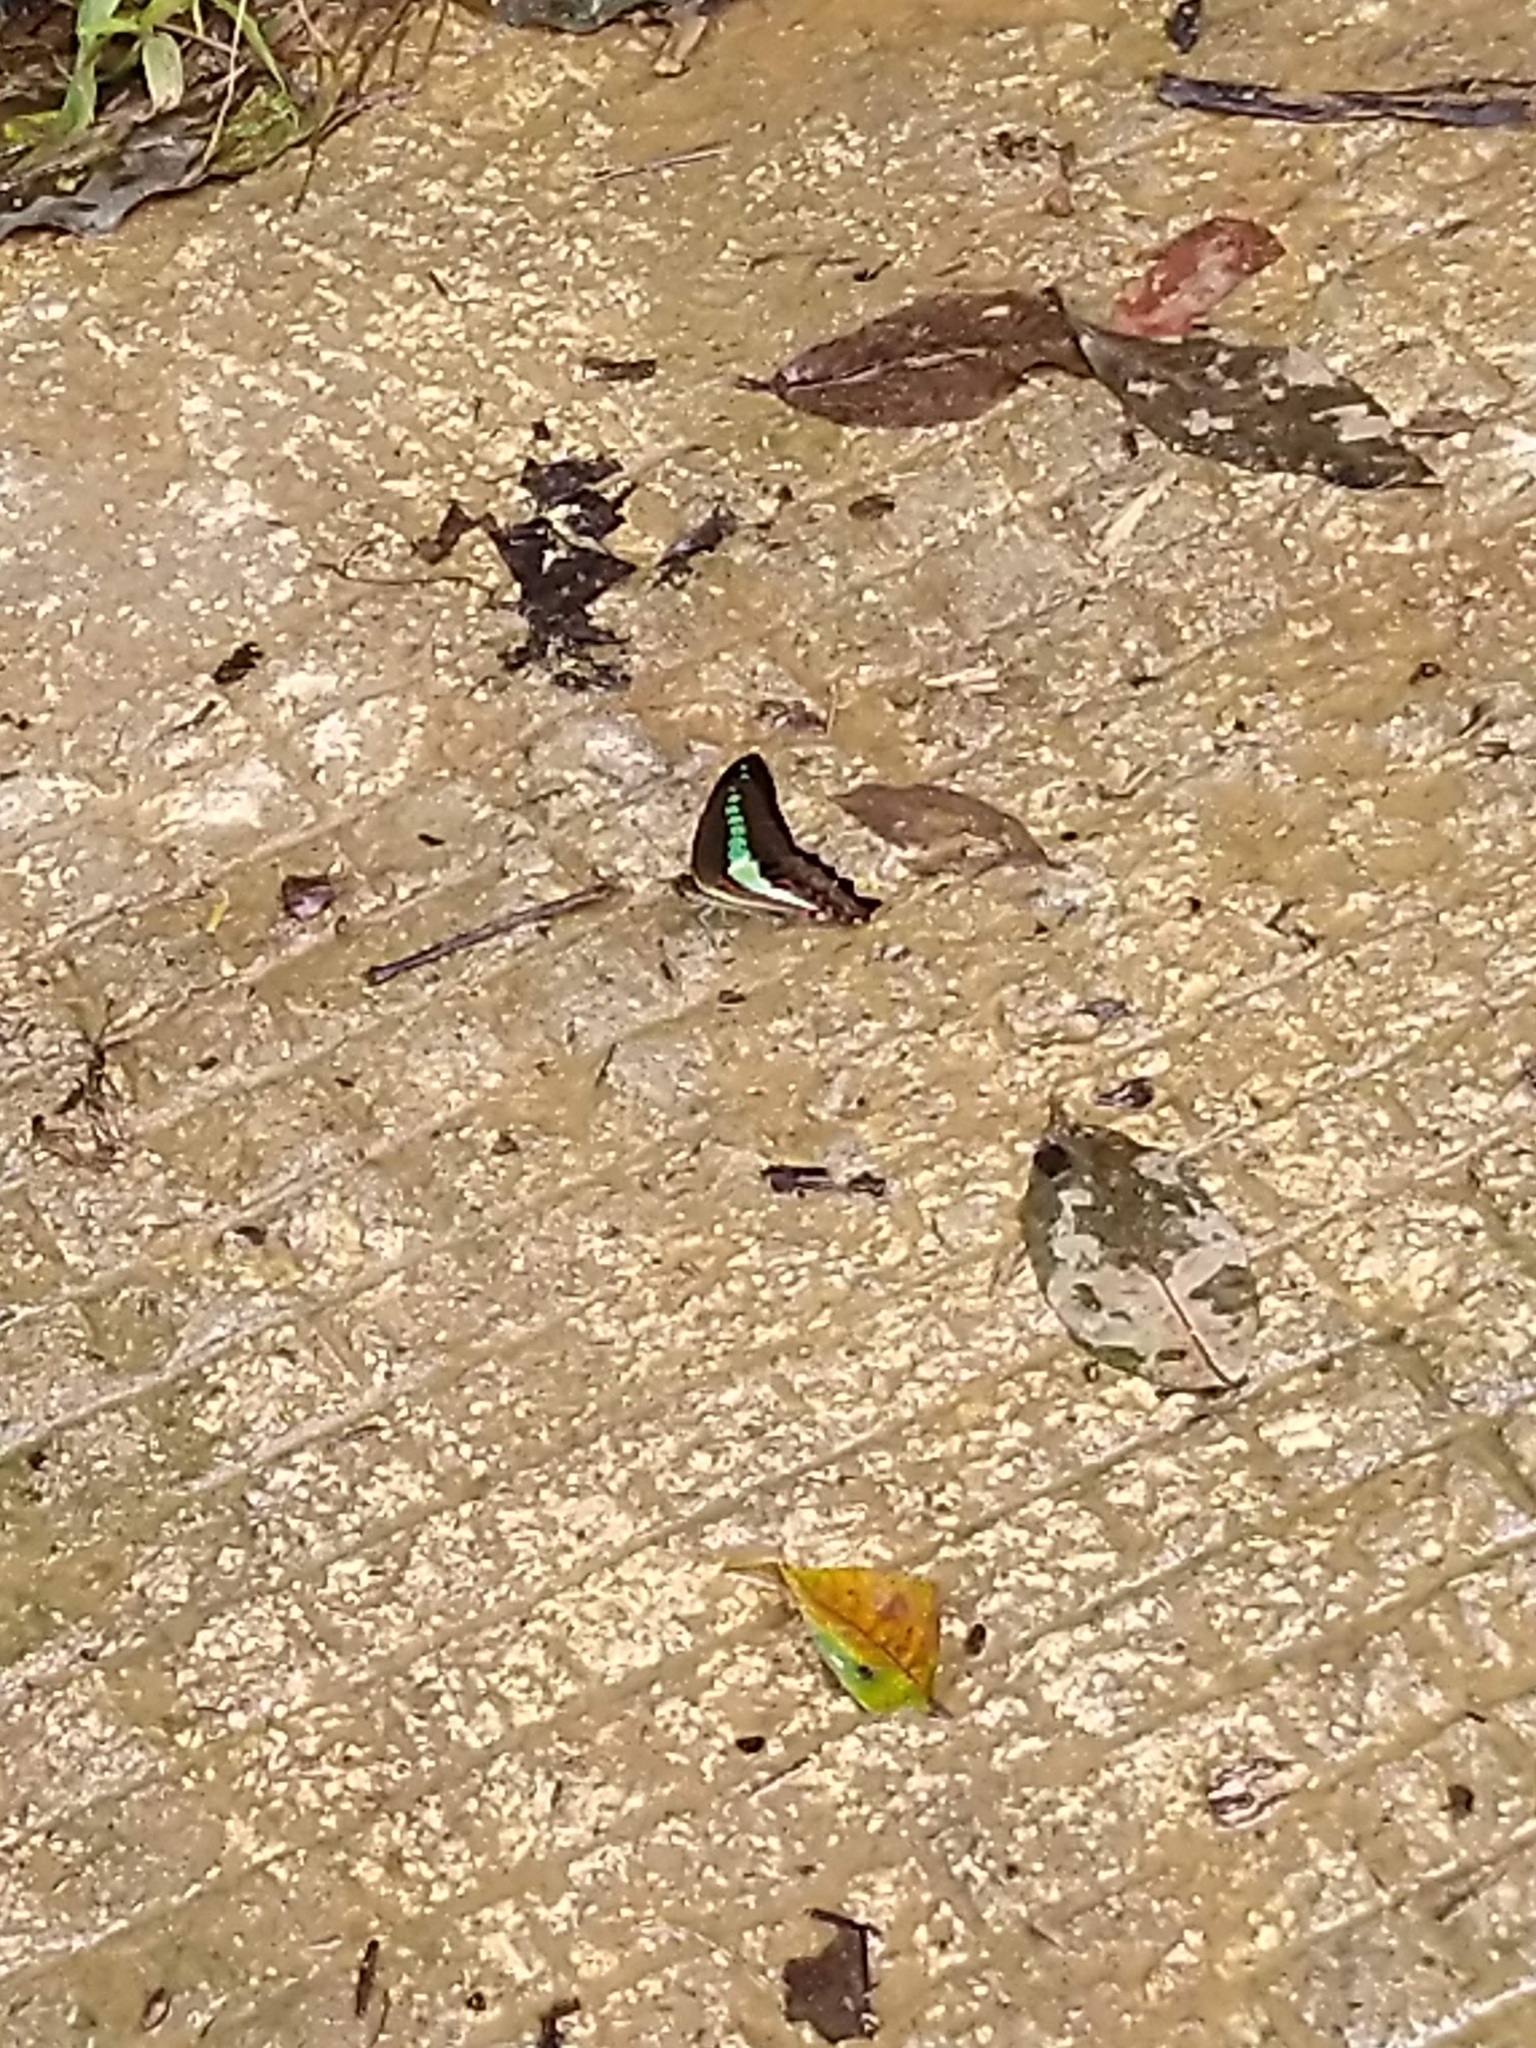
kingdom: Animalia
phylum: Arthropoda
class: Insecta
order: Lepidoptera
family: Papilionidae
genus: Graphium
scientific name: Graphium
